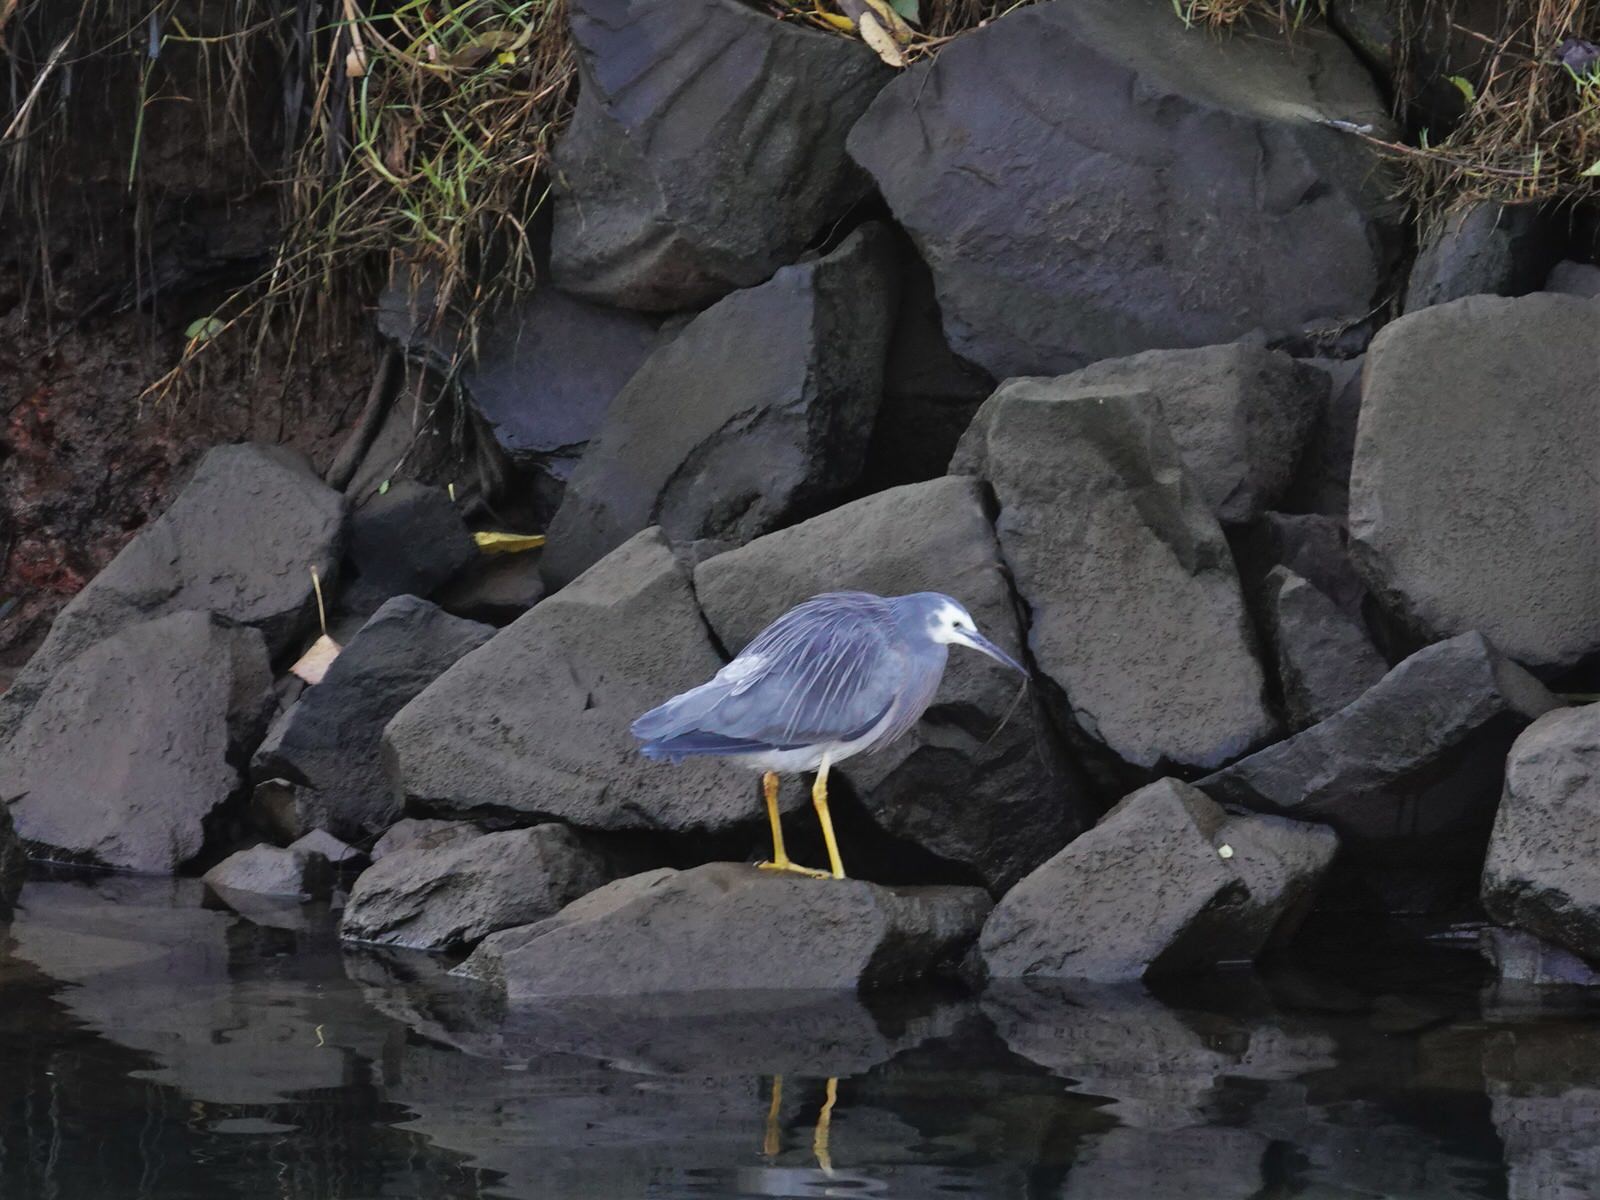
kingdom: Animalia
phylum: Chordata
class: Aves
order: Pelecaniformes
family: Ardeidae
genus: Egretta
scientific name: Egretta novaehollandiae
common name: White-faced heron
